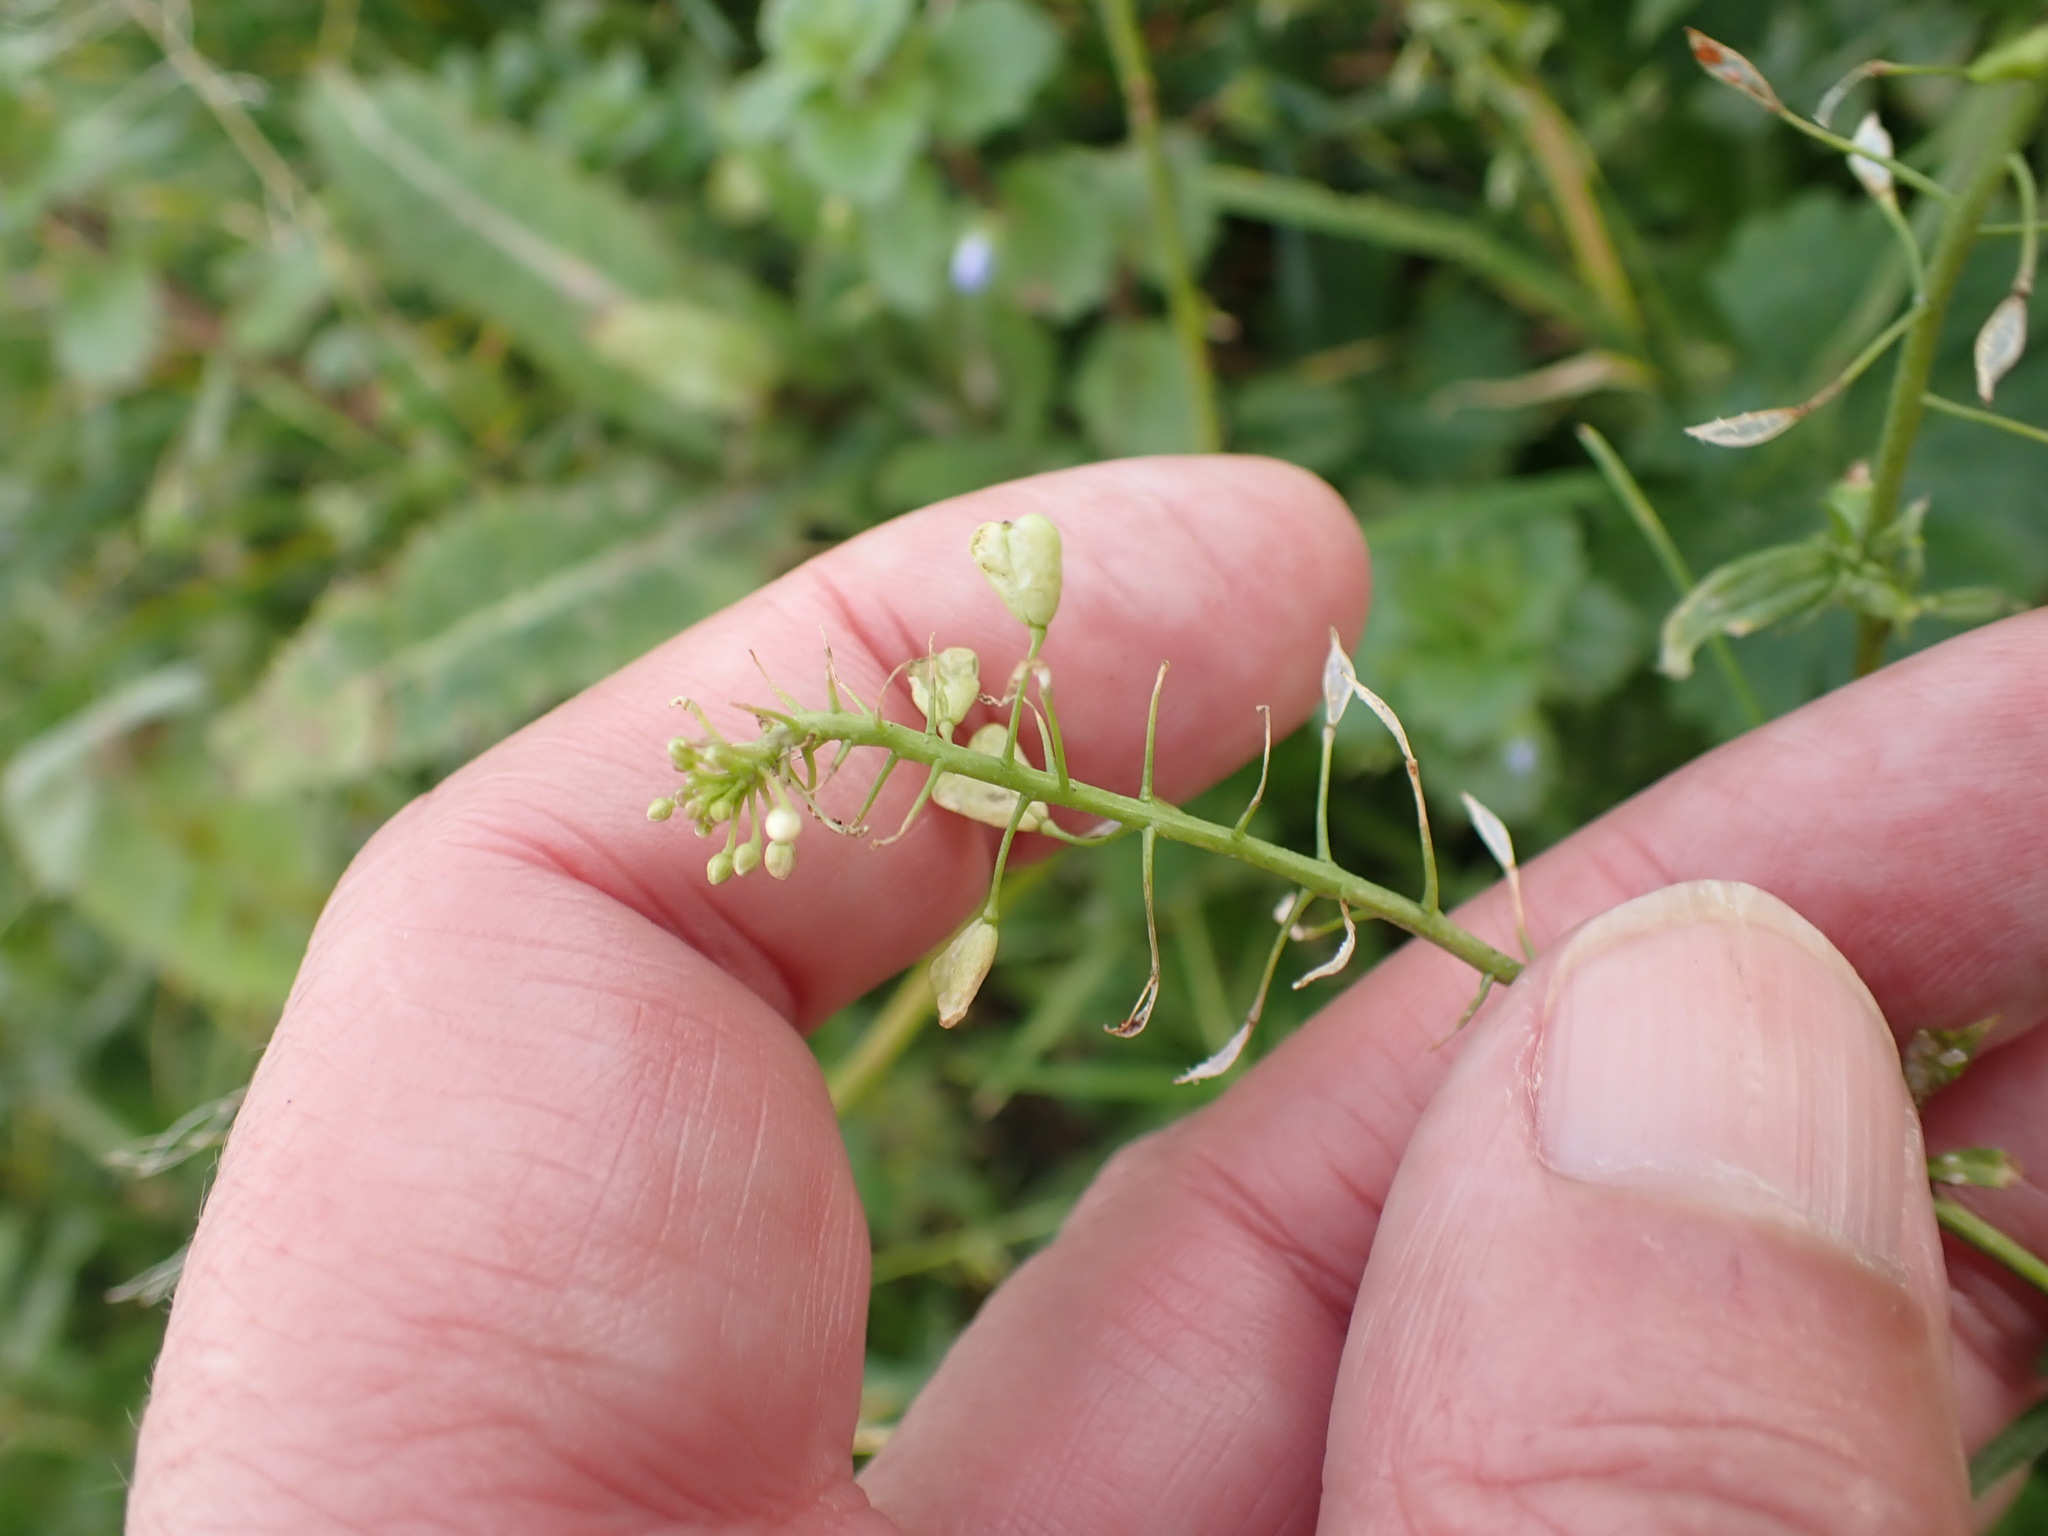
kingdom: Plantae
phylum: Tracheophyta
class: Magnoliopsida
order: Brassicales
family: Brassicaceae
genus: Capsella
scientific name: Capsella bursa-pastoris
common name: Shepherd's purse
